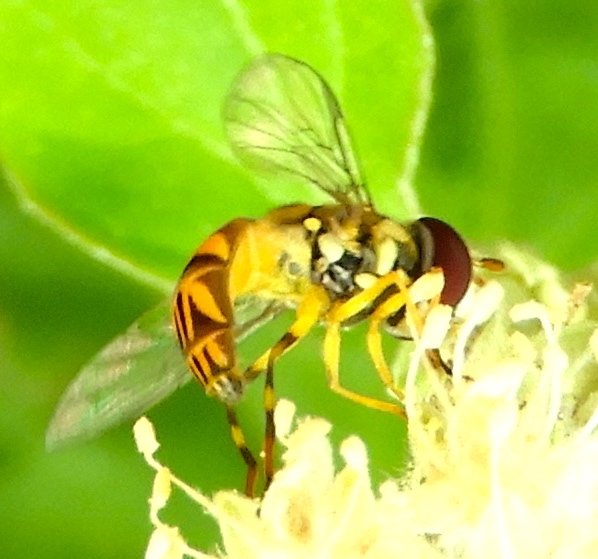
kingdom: Animalia
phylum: Arthropoda
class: Insecta
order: Diptera
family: Syrphidae
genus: Allograpta
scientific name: Allograpta
